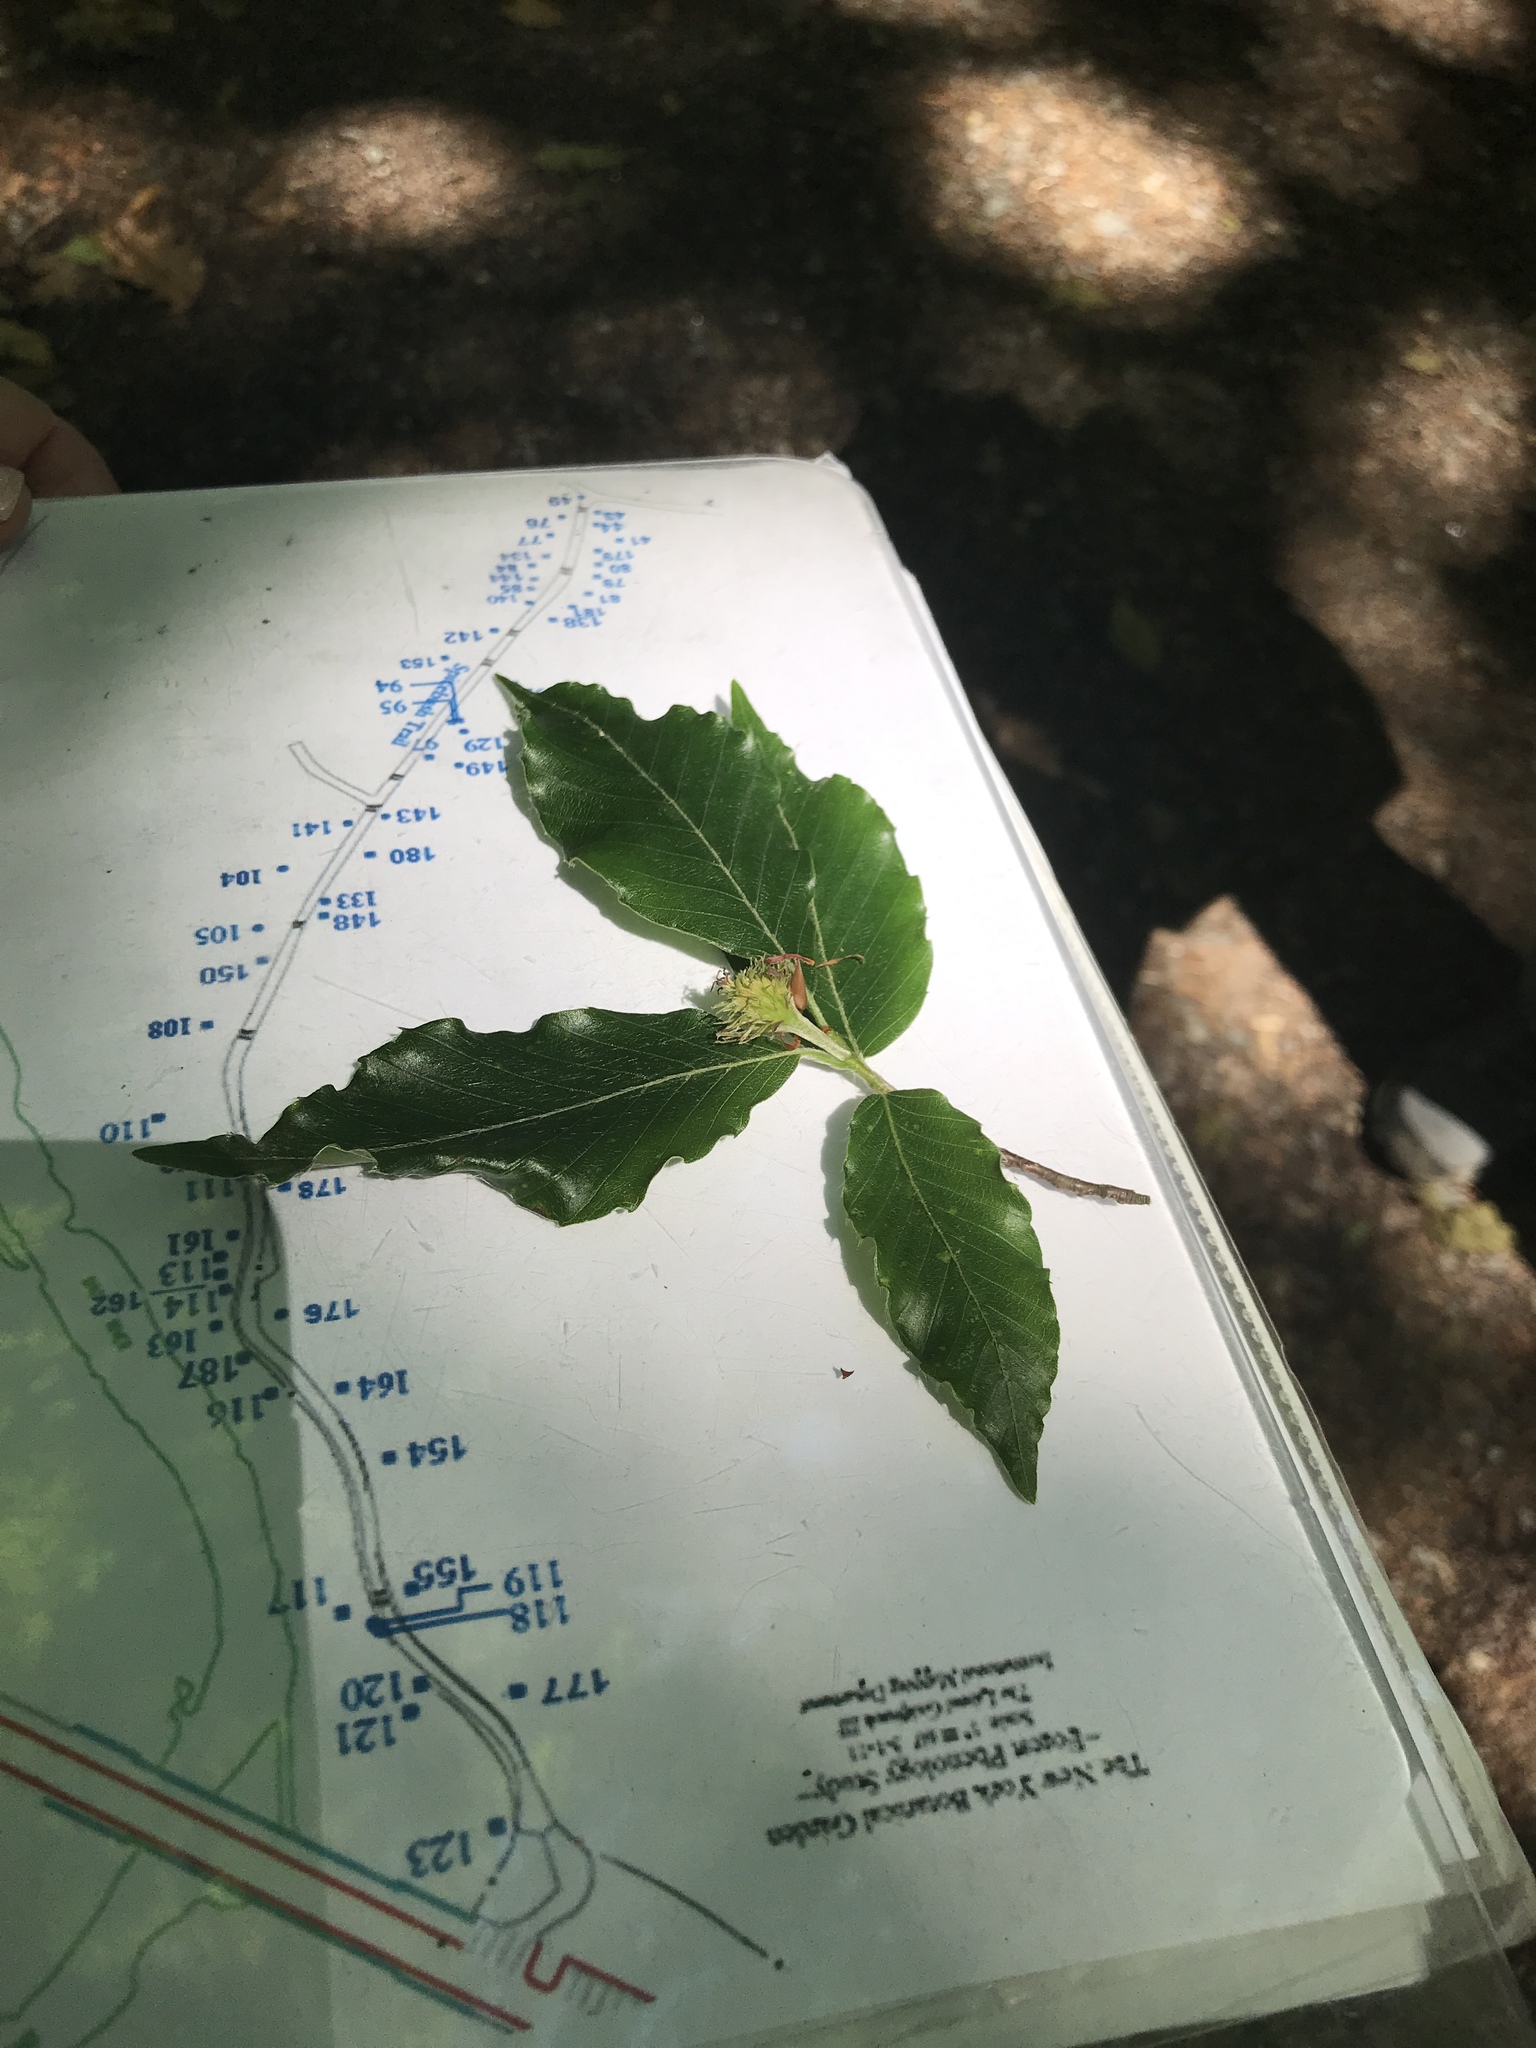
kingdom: Plantae
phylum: Tracheophyta
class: Magnoliopsida
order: Fagales
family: Fagaceae
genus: Fagus
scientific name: Fagus grandifolia
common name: American beech
